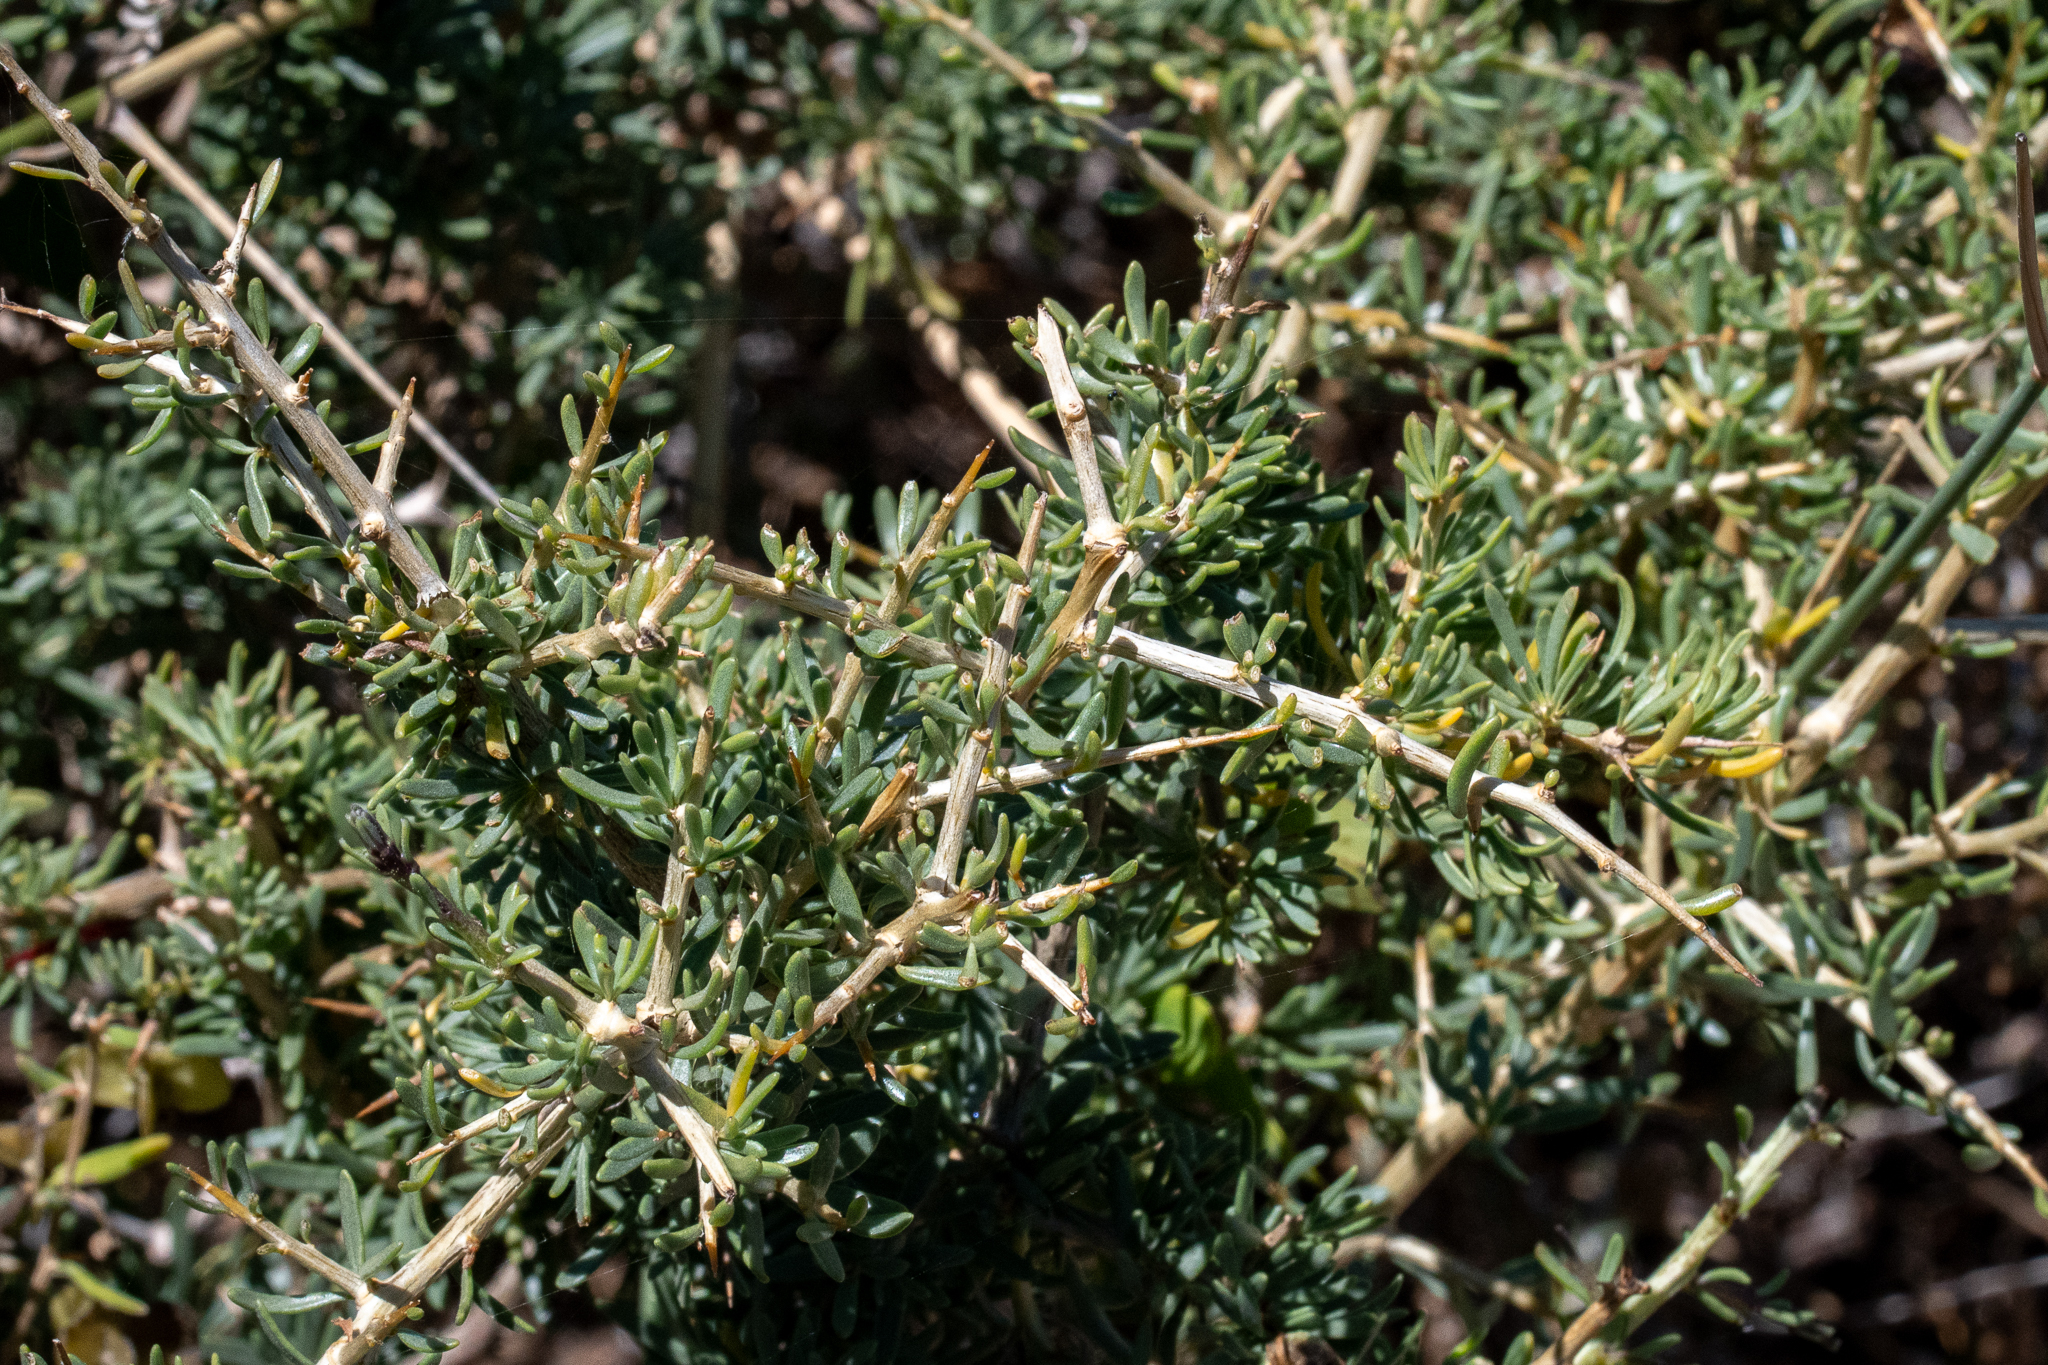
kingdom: Plantae
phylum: Tracheophyta
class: Magnoliopsida
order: Solanales
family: Solanaceae
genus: Lycium
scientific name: Lycium afrum
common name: Kaffir boxthorn
